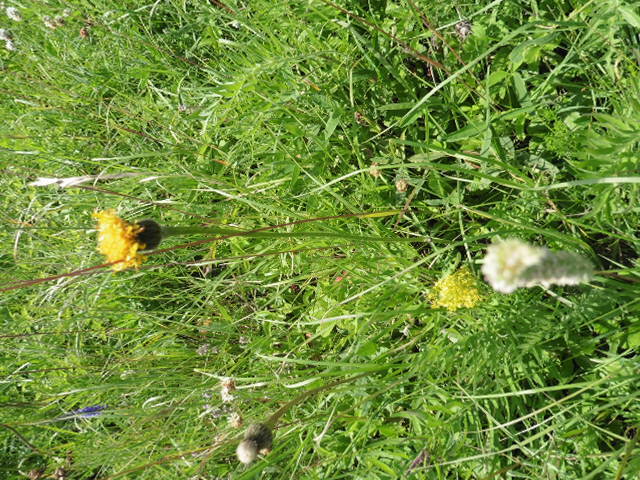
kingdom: Plantae
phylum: Tracheophyta
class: Magnoliopsida
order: Asterales
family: Asteraceae
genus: Trommsdorffia
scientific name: Trommsdorffia maculata
